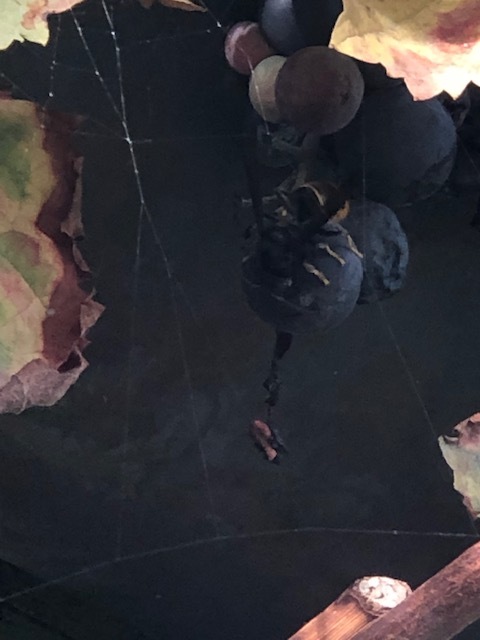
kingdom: Animalia
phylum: Arthropoda
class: Insecta
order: Hymenoptera
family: Vespidae
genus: Vespa
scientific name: Vespa velutina
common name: Asian hornet
